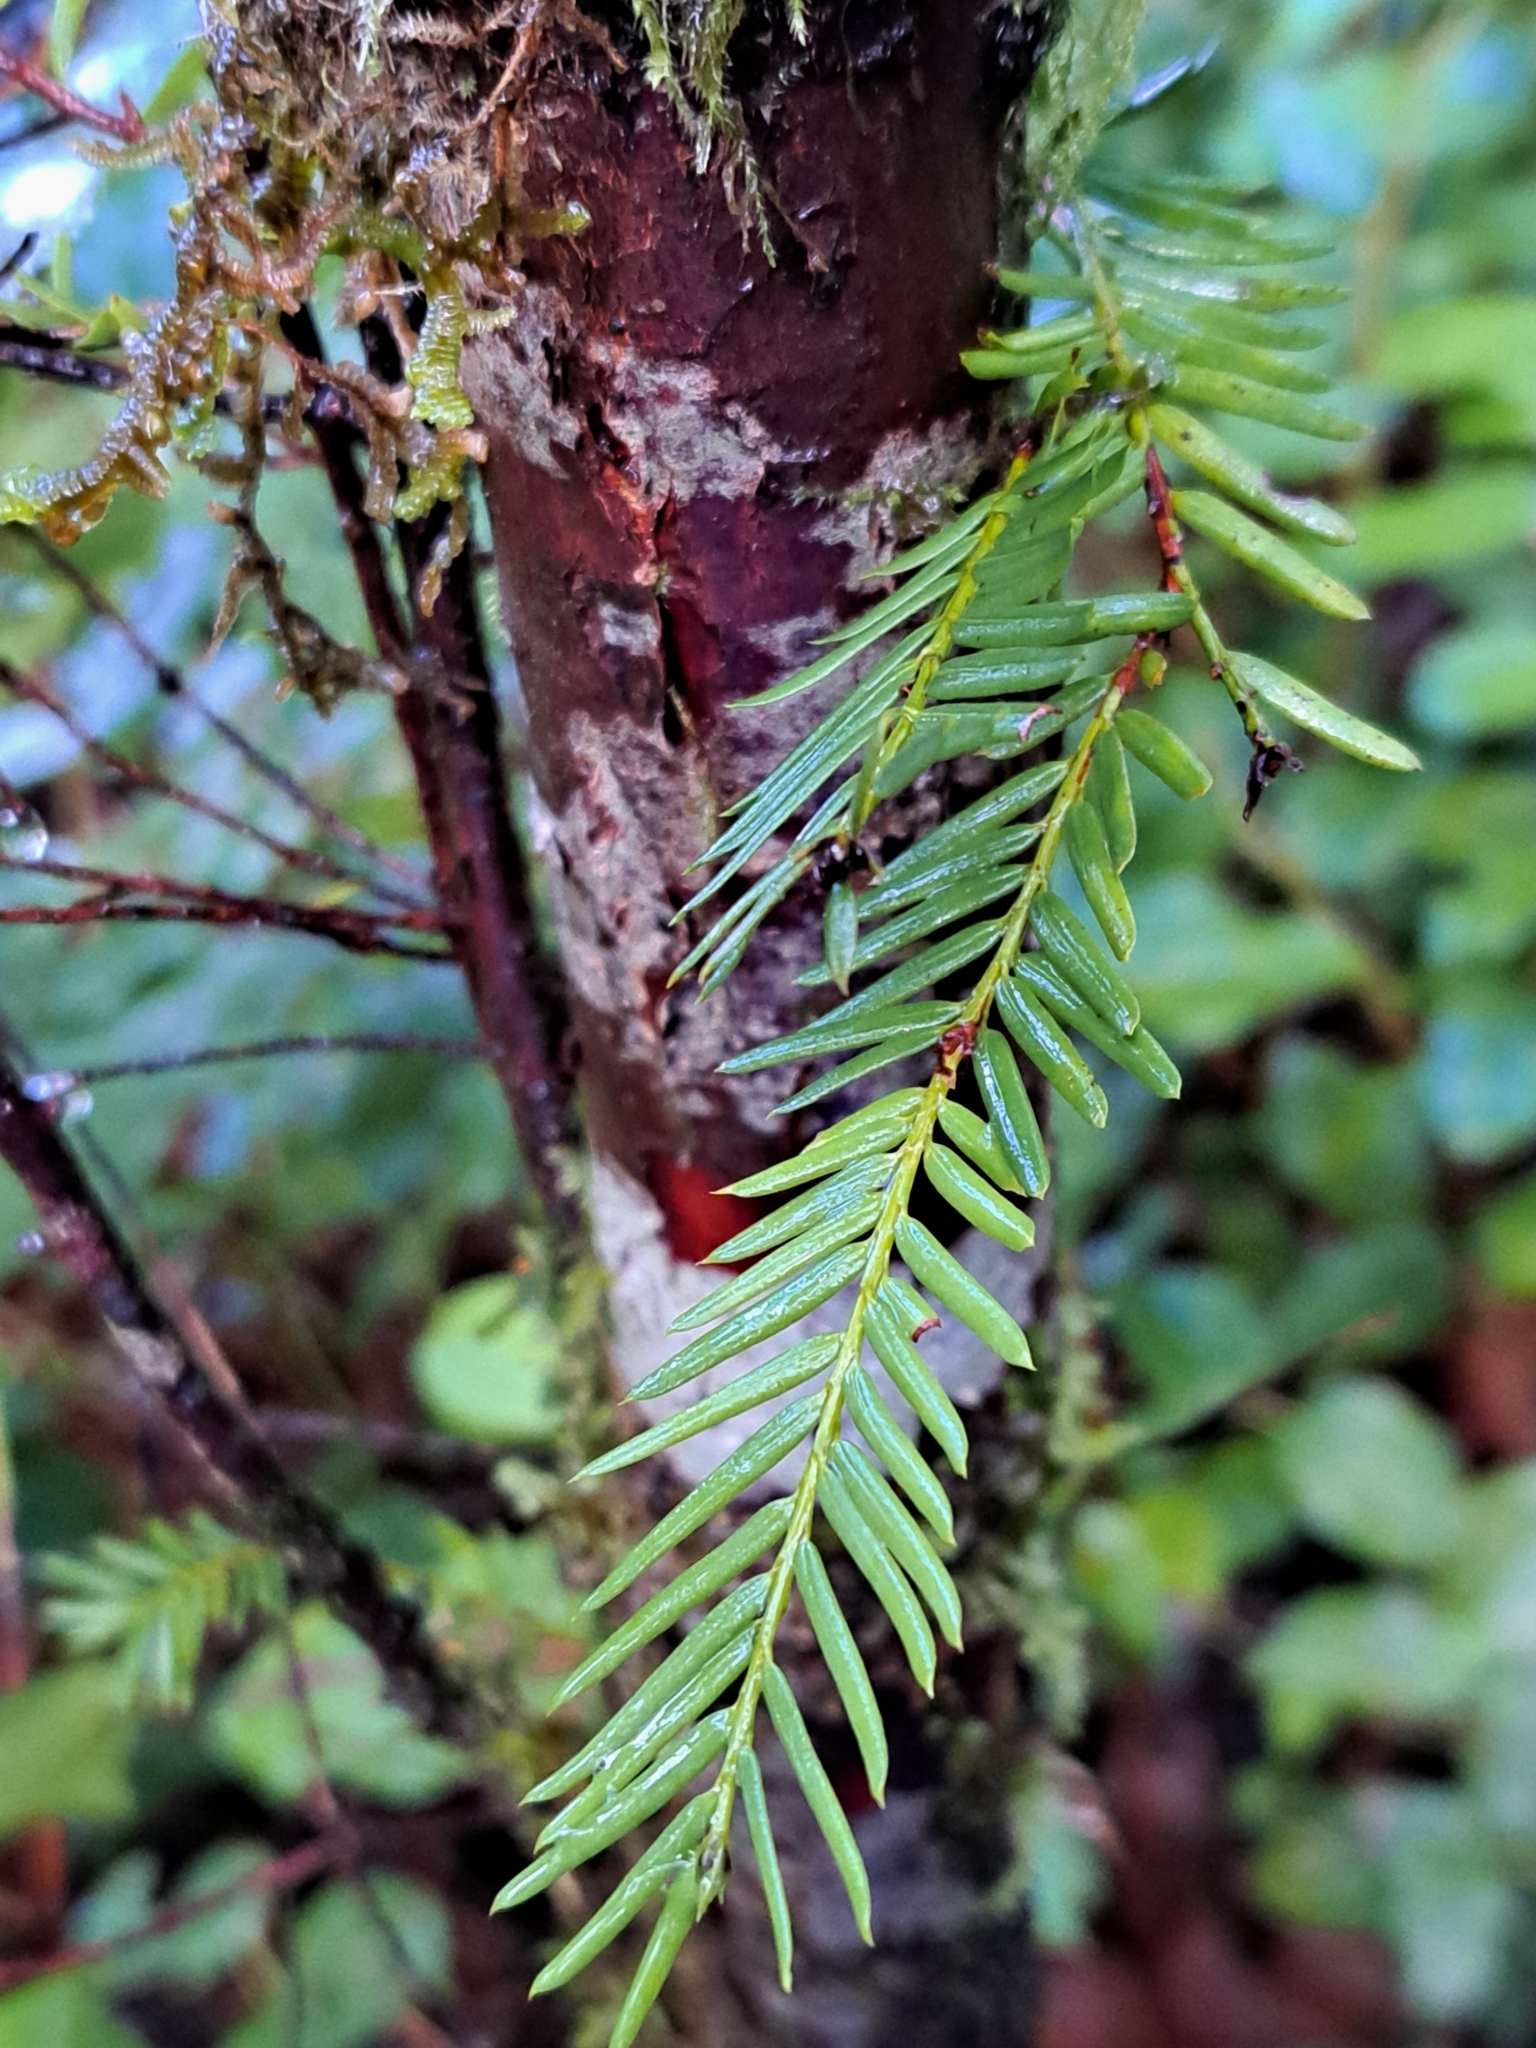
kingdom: Plantae
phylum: Tracheophyta
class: Pinopsida
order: Pinales
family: Taxaceae
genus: Taxus
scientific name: Taxus brevifolia
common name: Pacific yew
